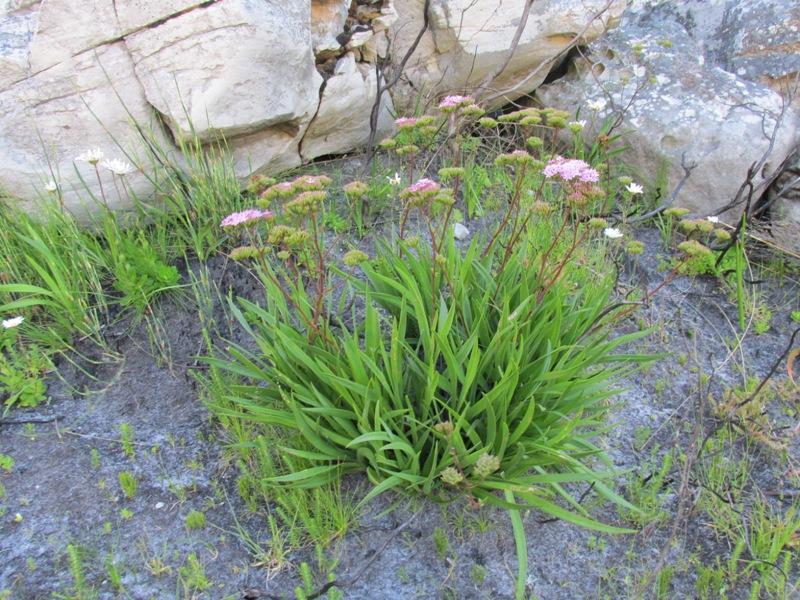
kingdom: Plantae
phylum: Tracheophyta
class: Magnoliopsida
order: Asterales
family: Asteraceae
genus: Corymbium
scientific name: Corymbium glabrum
